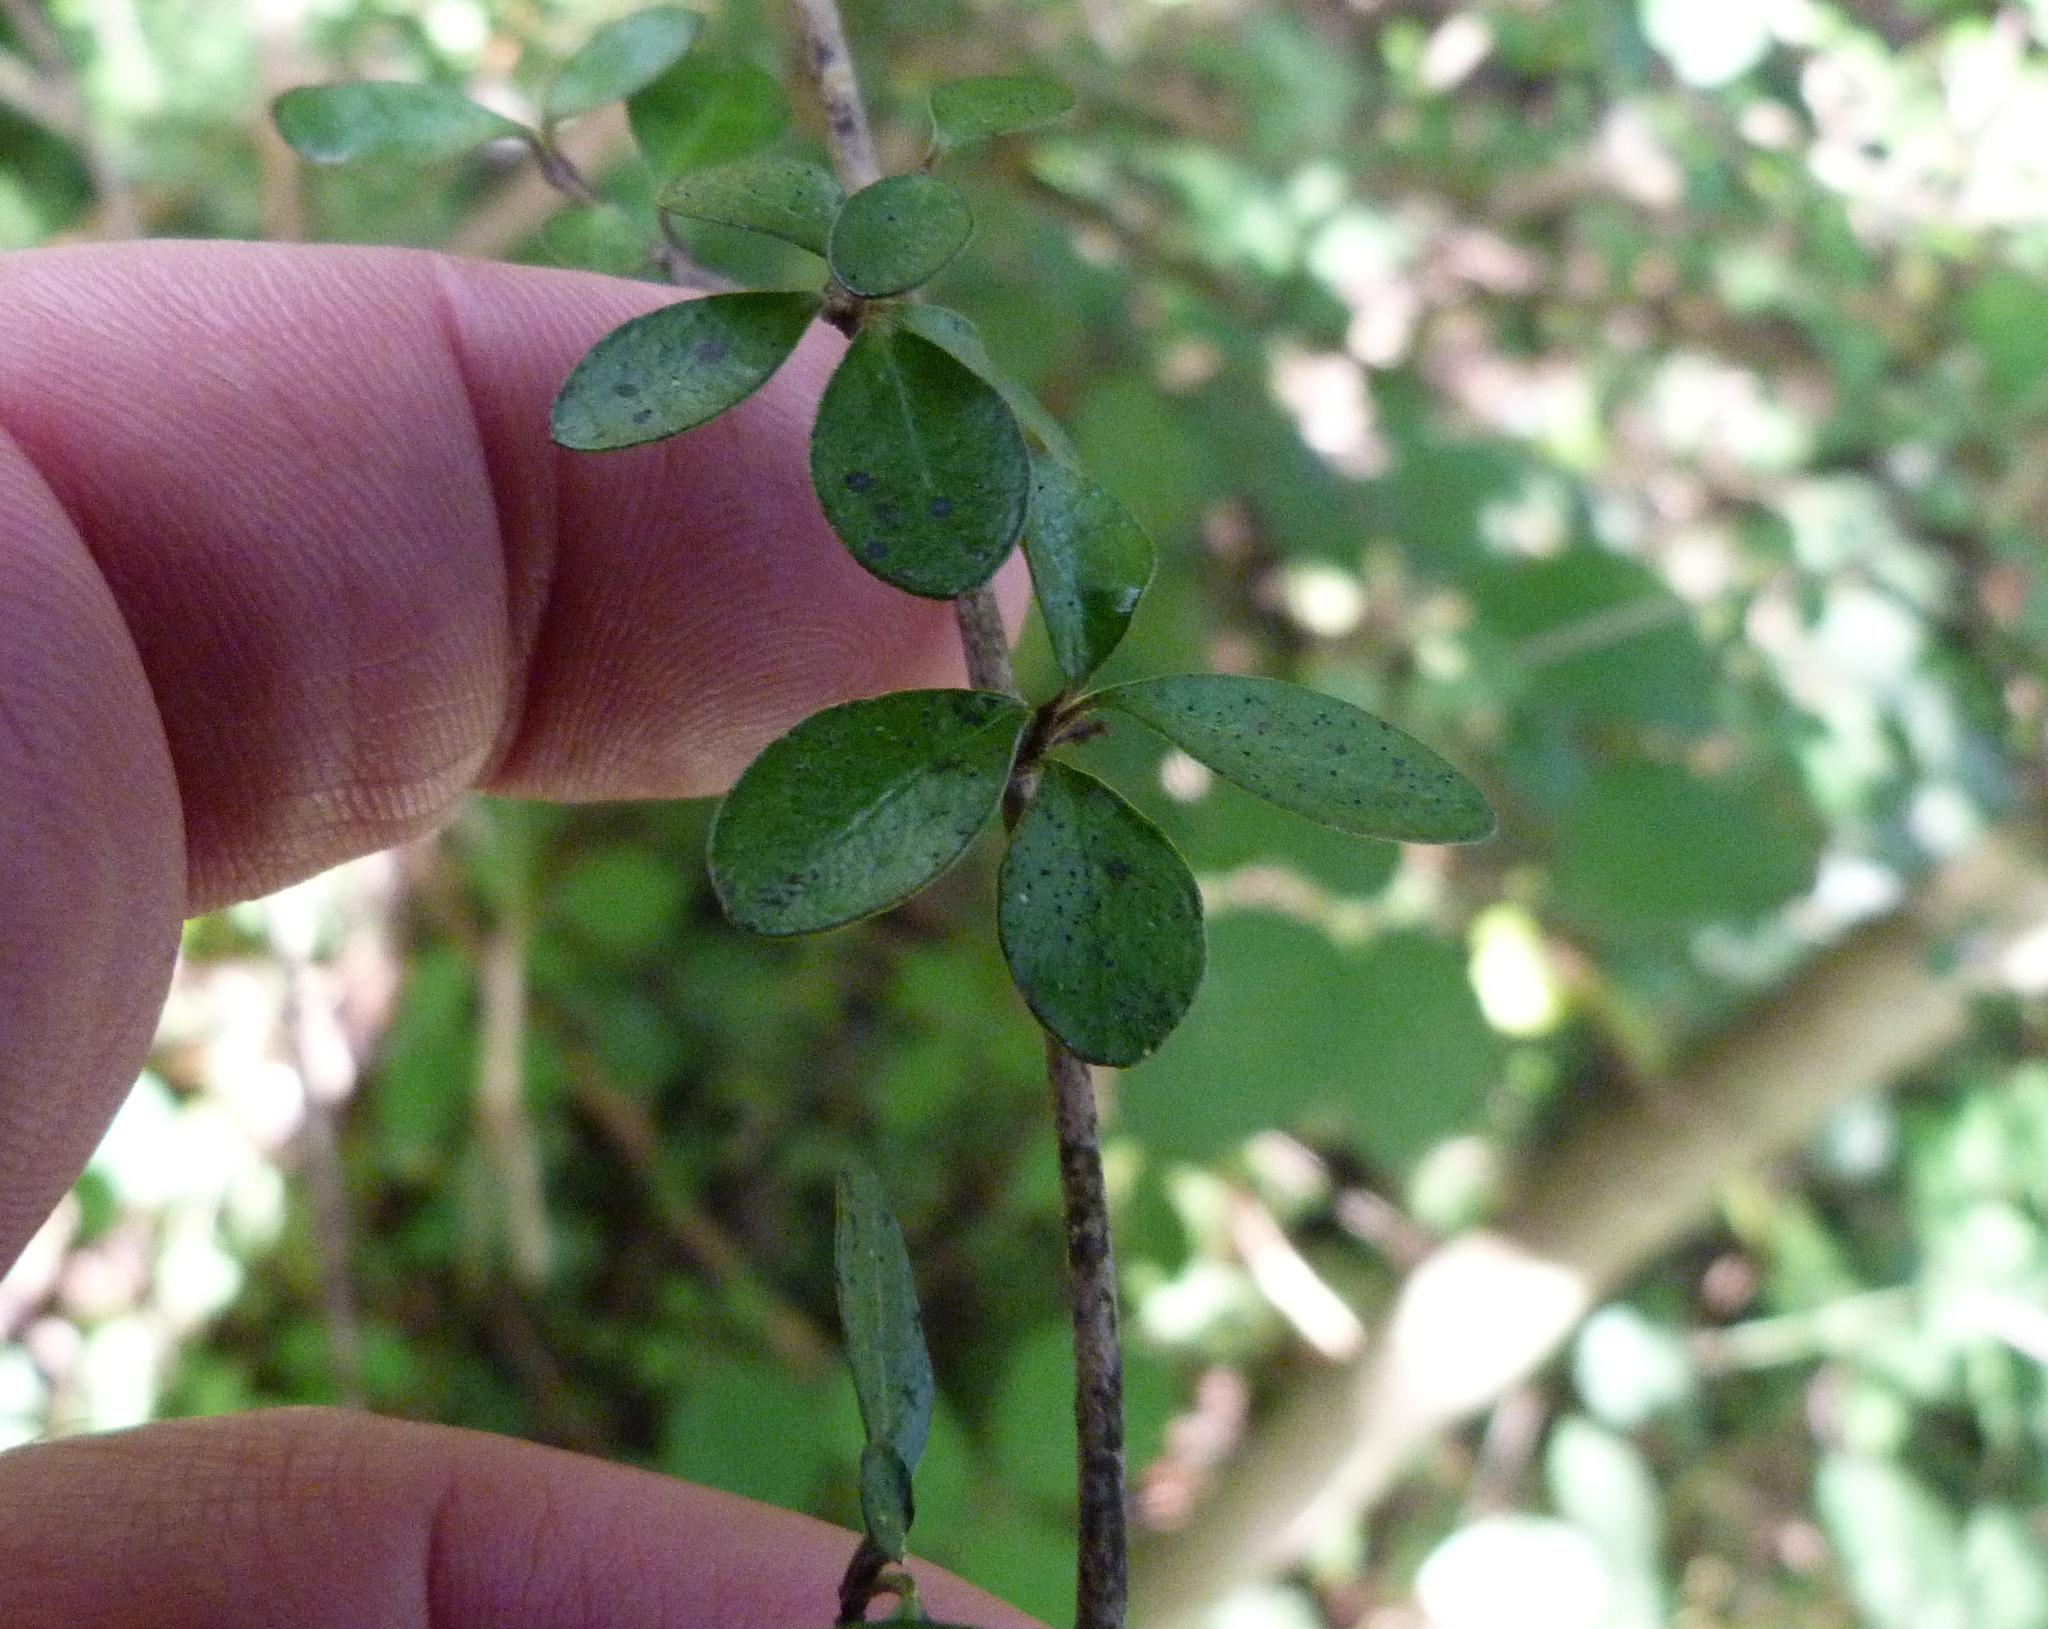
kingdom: Plantae
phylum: Tracheophyta
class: Magnoliopsida
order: Myrtales
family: Myrtaceae
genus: Neomyrtus
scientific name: Neomyrtus pedunculata
